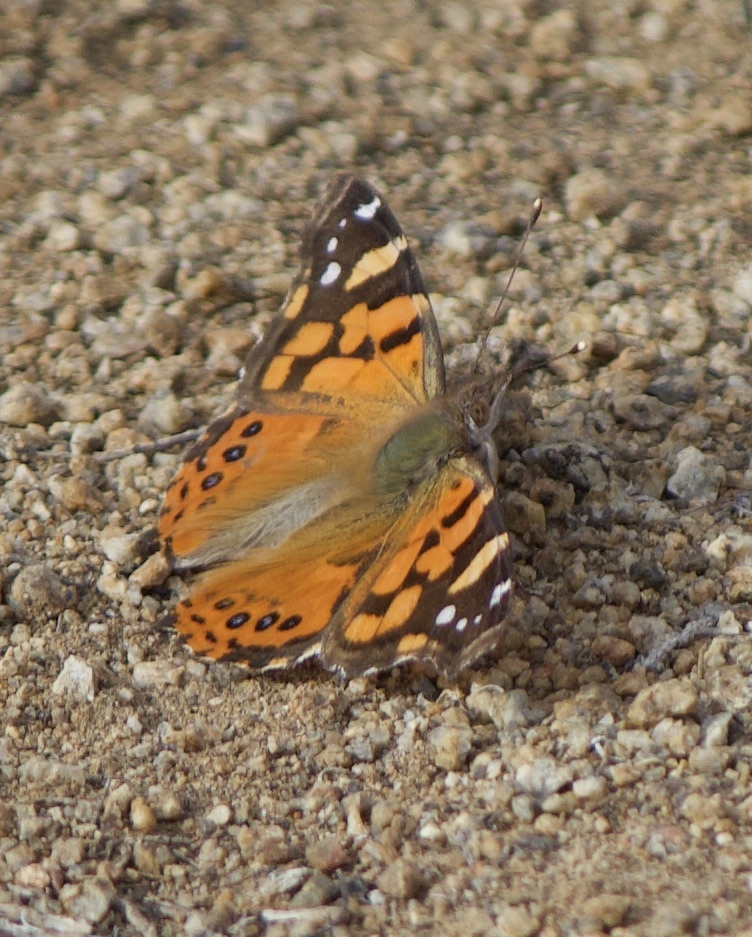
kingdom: Animalia
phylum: Arthropoda
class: Insecta
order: Lepidoptera
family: Nymphalidae
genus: Vanessa
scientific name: Vanessa carye
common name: Subtropical lady
